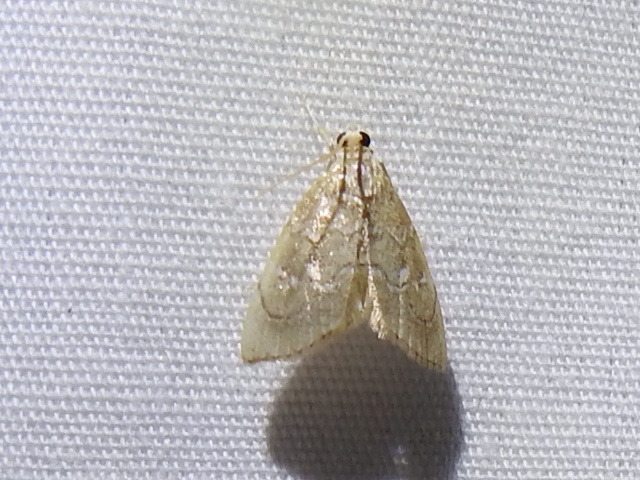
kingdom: Animalia
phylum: Arthropoda
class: Insecta
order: Lepidoptera
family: Crambidae
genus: Nephrogramma
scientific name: Nephrogramma separata
